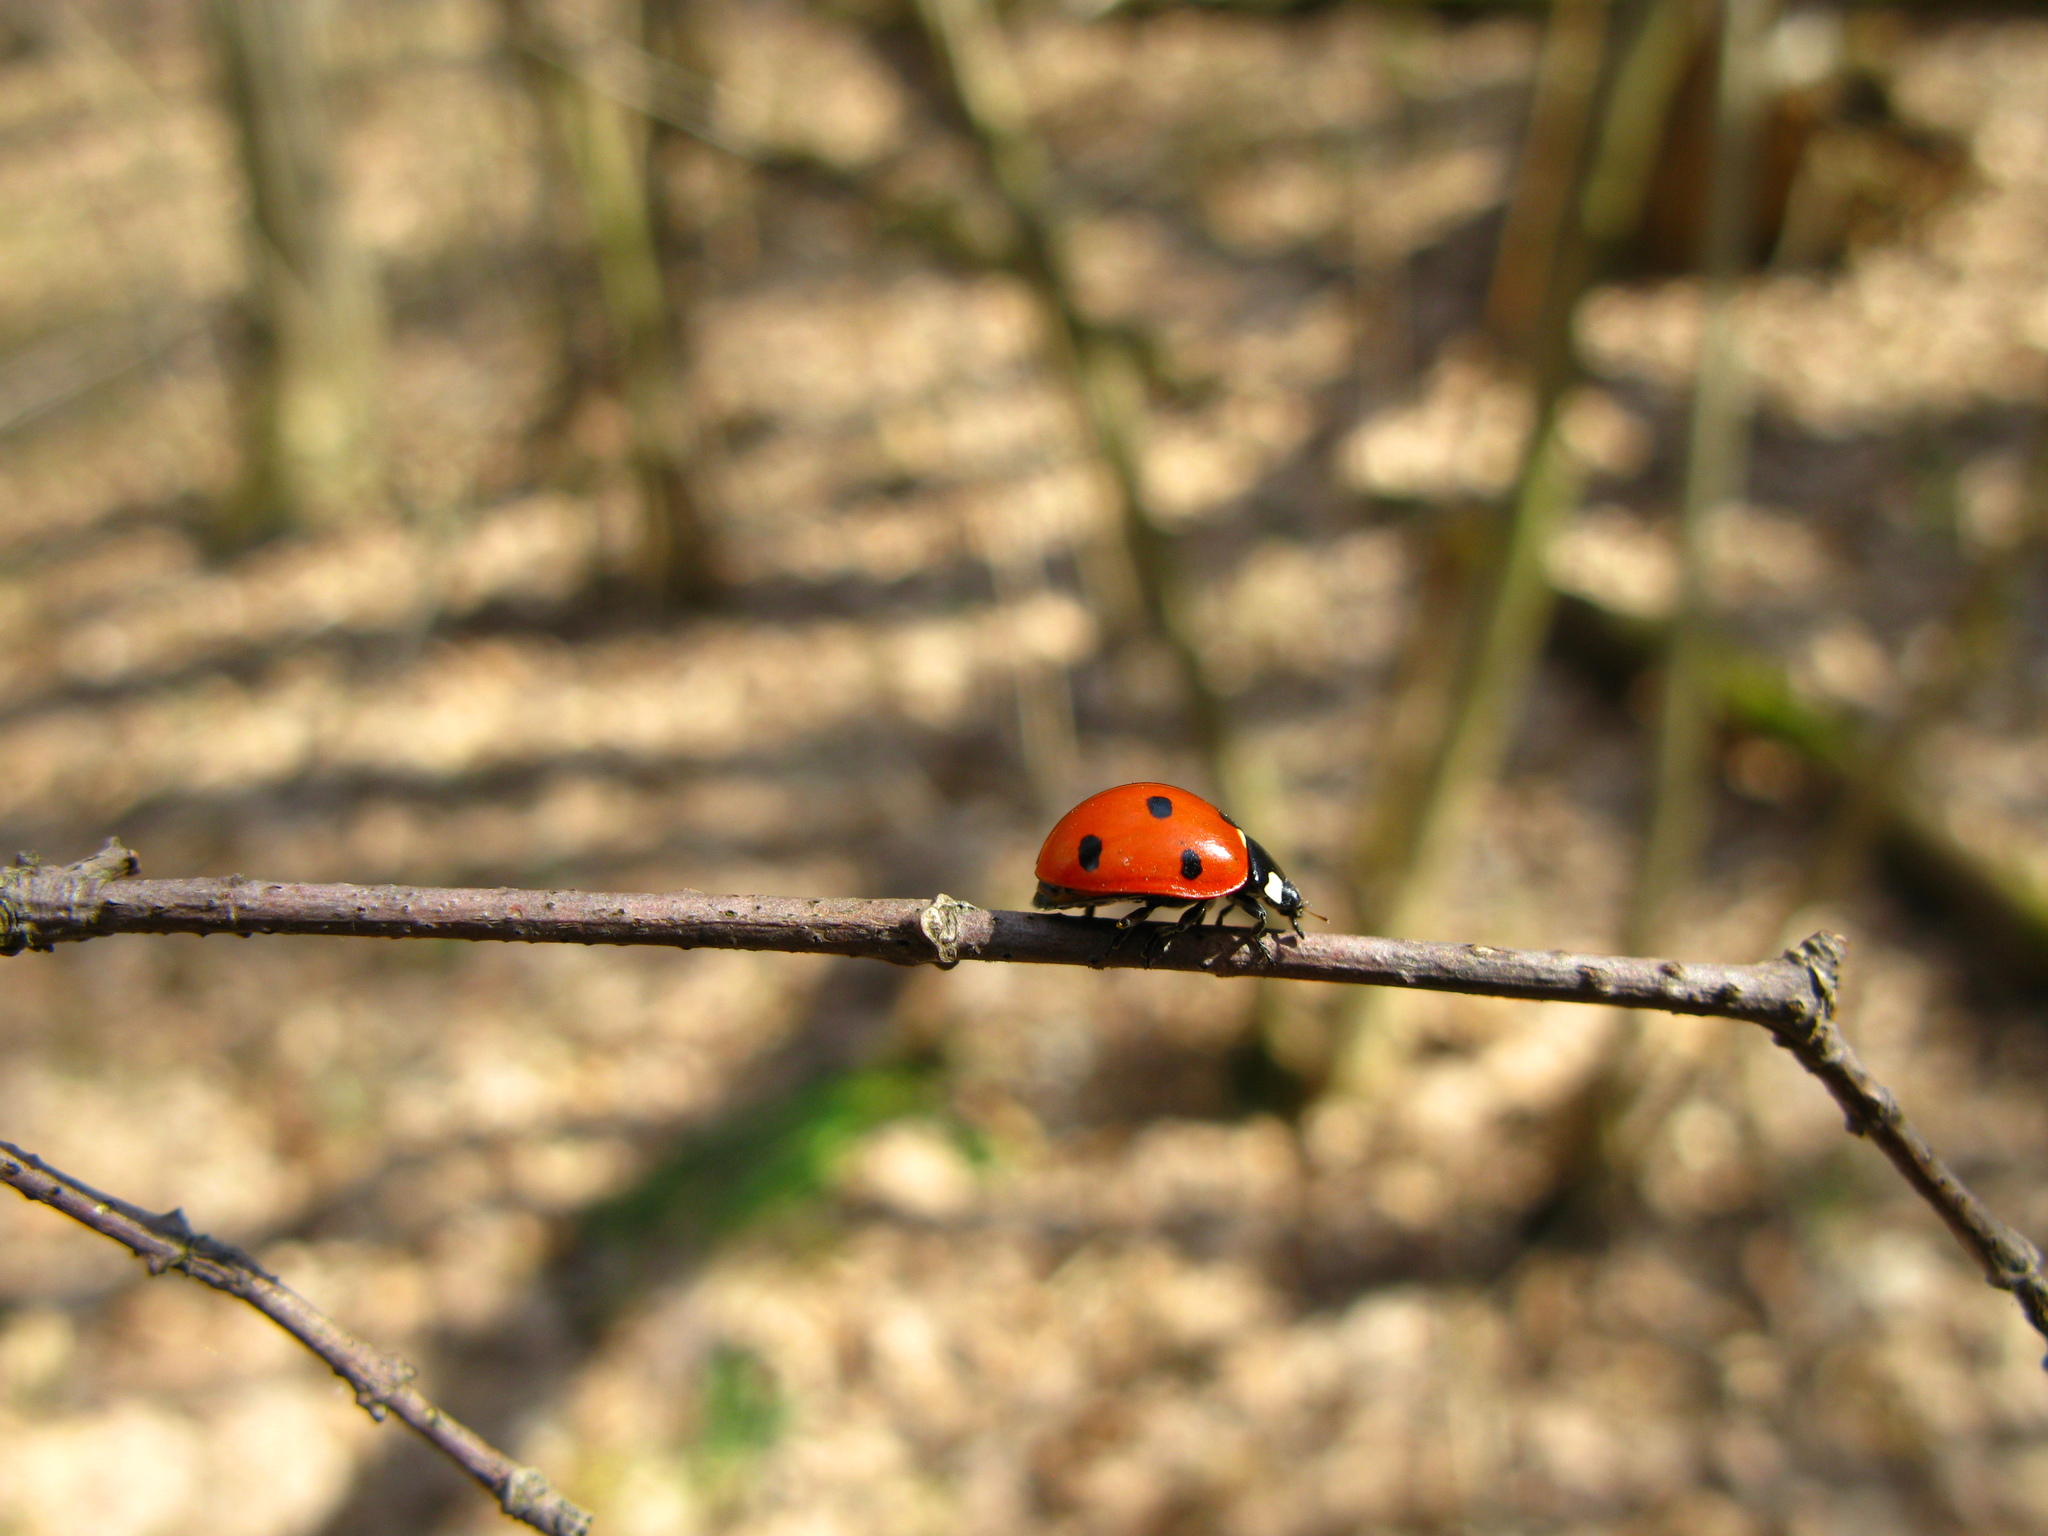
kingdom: Animalia
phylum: Arthropoda
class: Insecta
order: Coleoptera
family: Coccinellidae
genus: Coccinella
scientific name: Coccinella septempunctata
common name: Sevenspotted lady beetle
